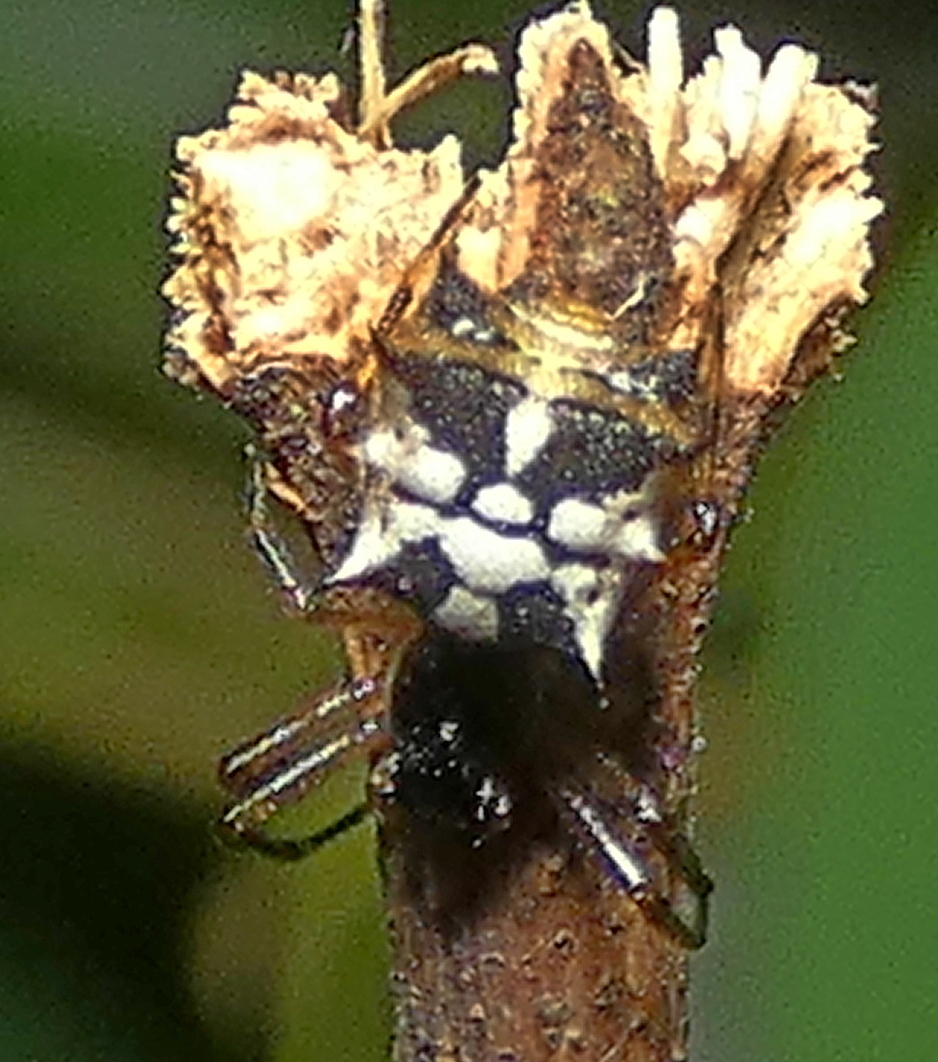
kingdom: Animalia
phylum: Arthropoda
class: Arachnida
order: Araneae
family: Araneidae
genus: Micrathena
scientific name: Micrathena picta
